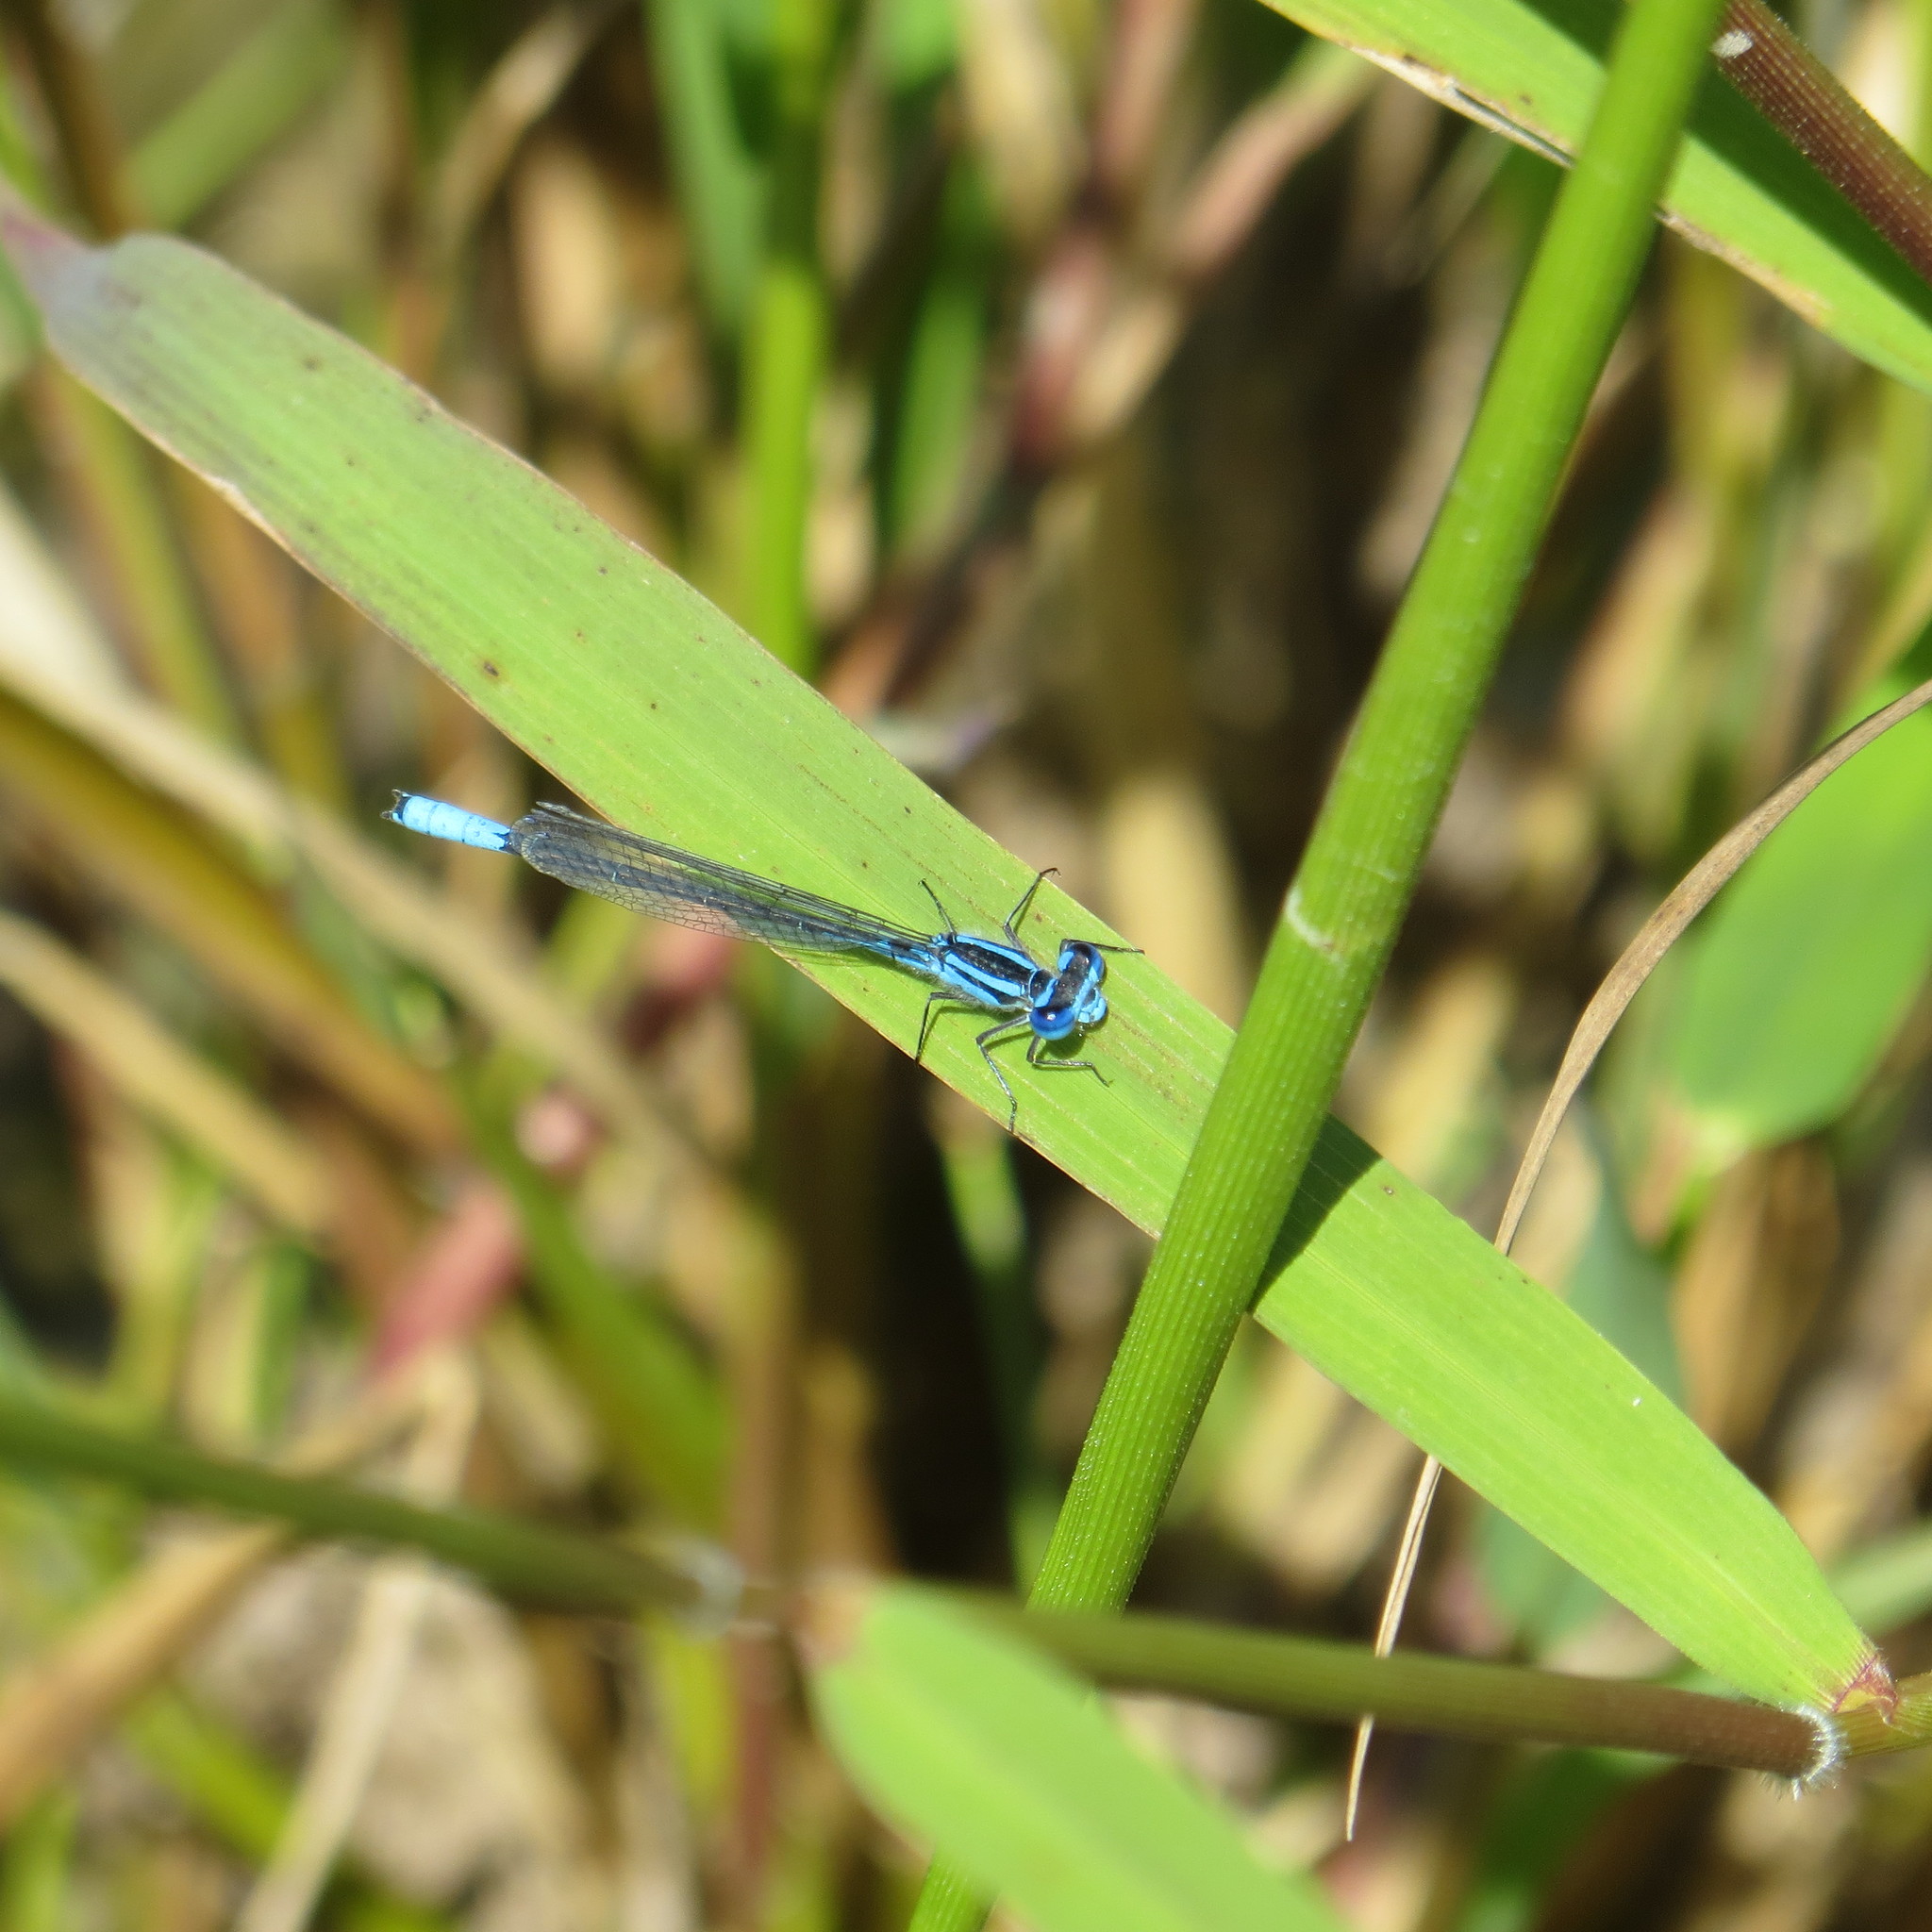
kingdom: Animalia
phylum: Arthropoda
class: Insecta
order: Odonata
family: Coenagrionidae
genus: Enallagma
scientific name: Enallagma aspersum
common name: Azure bluet
